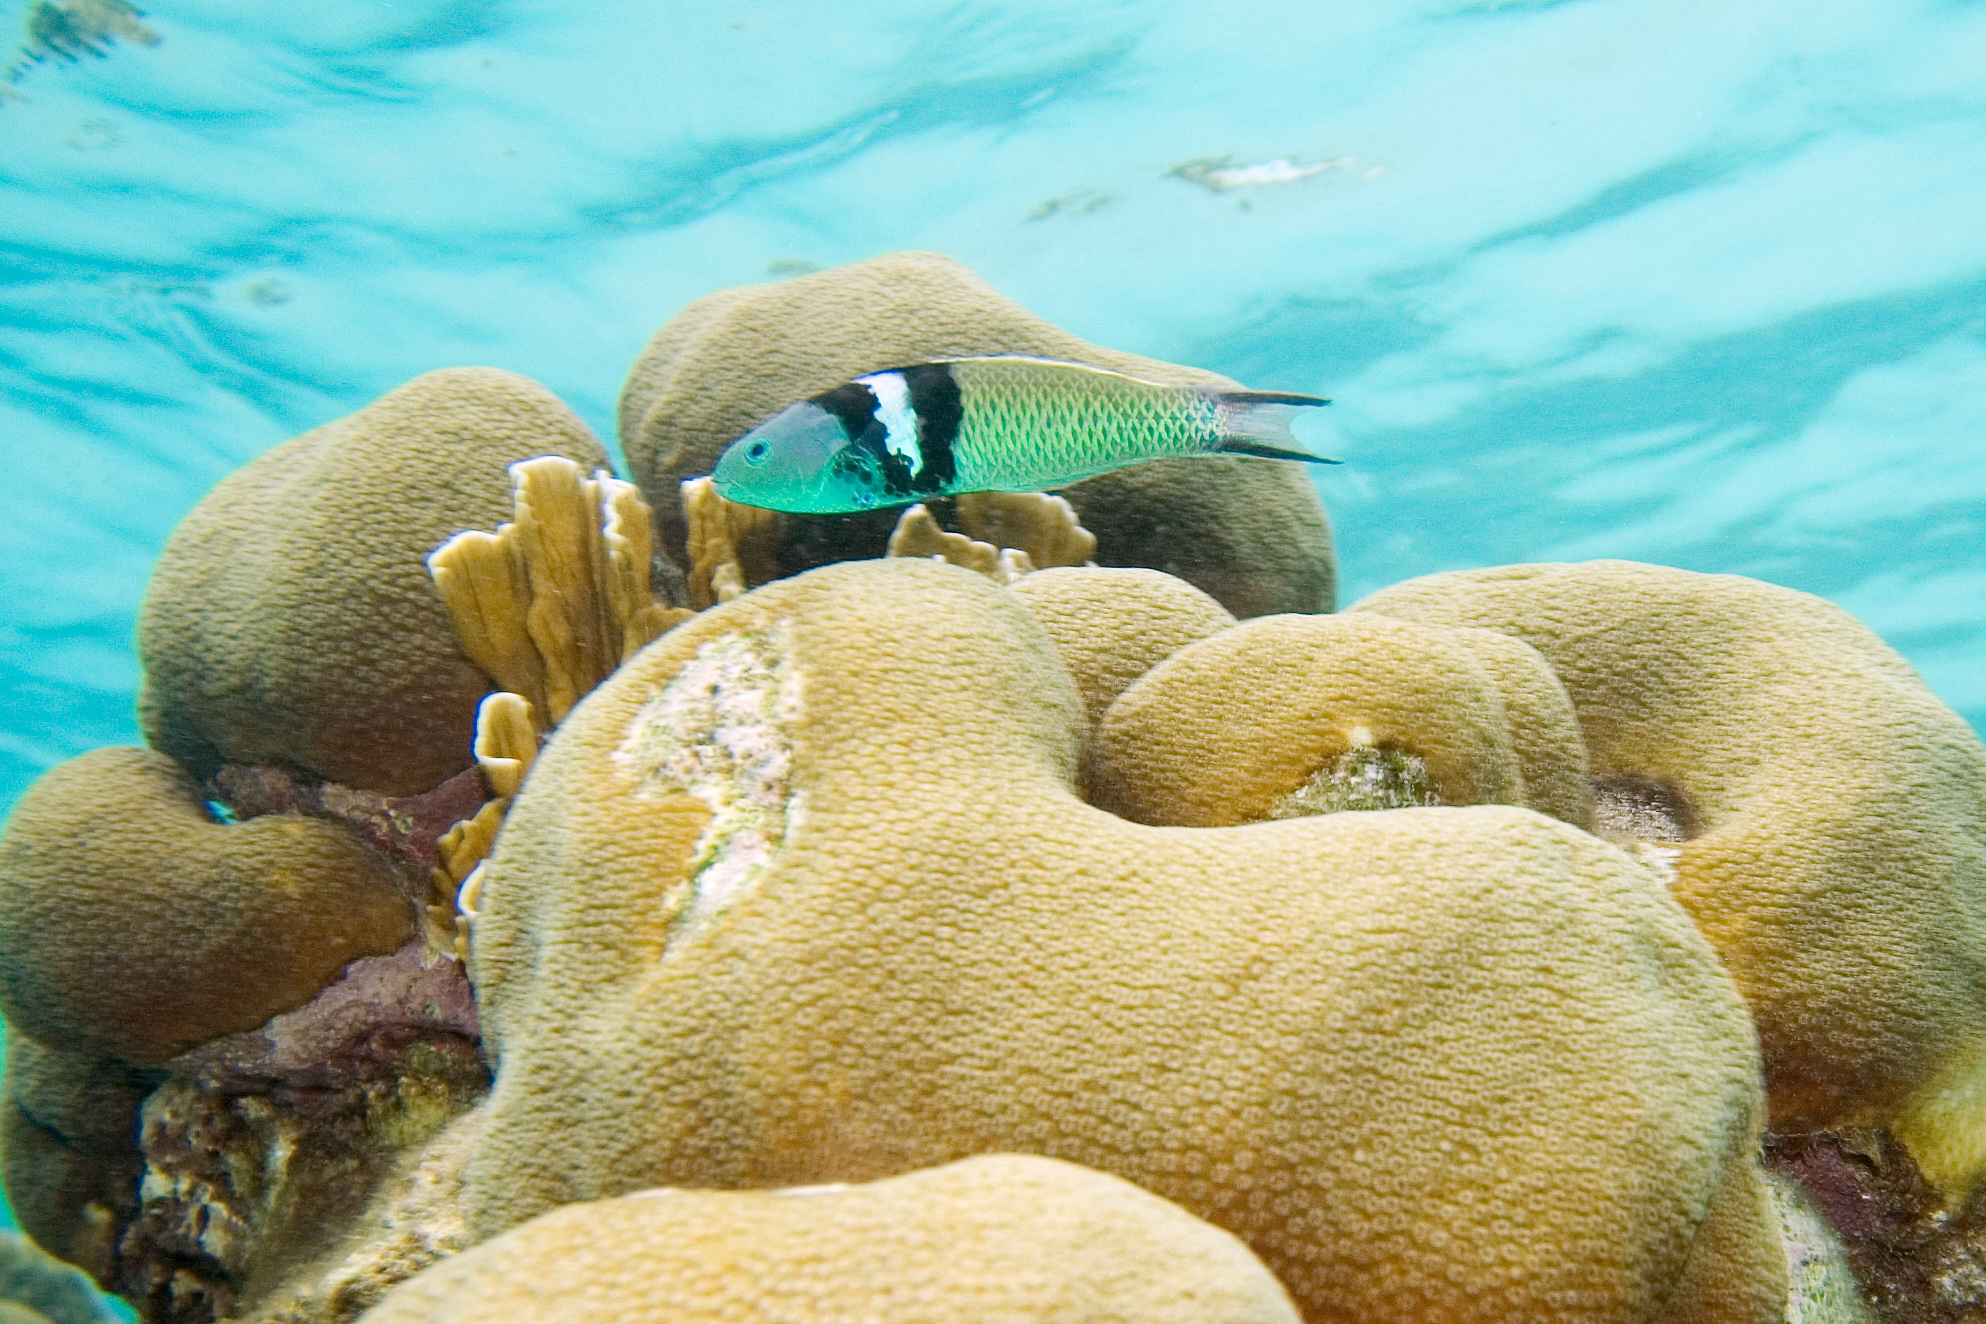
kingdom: Animalia
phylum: Chordata
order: Perciformes
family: Labridae
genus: Thalassoma
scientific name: Thalassoma bifasciatum
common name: Bluehead wrasse
